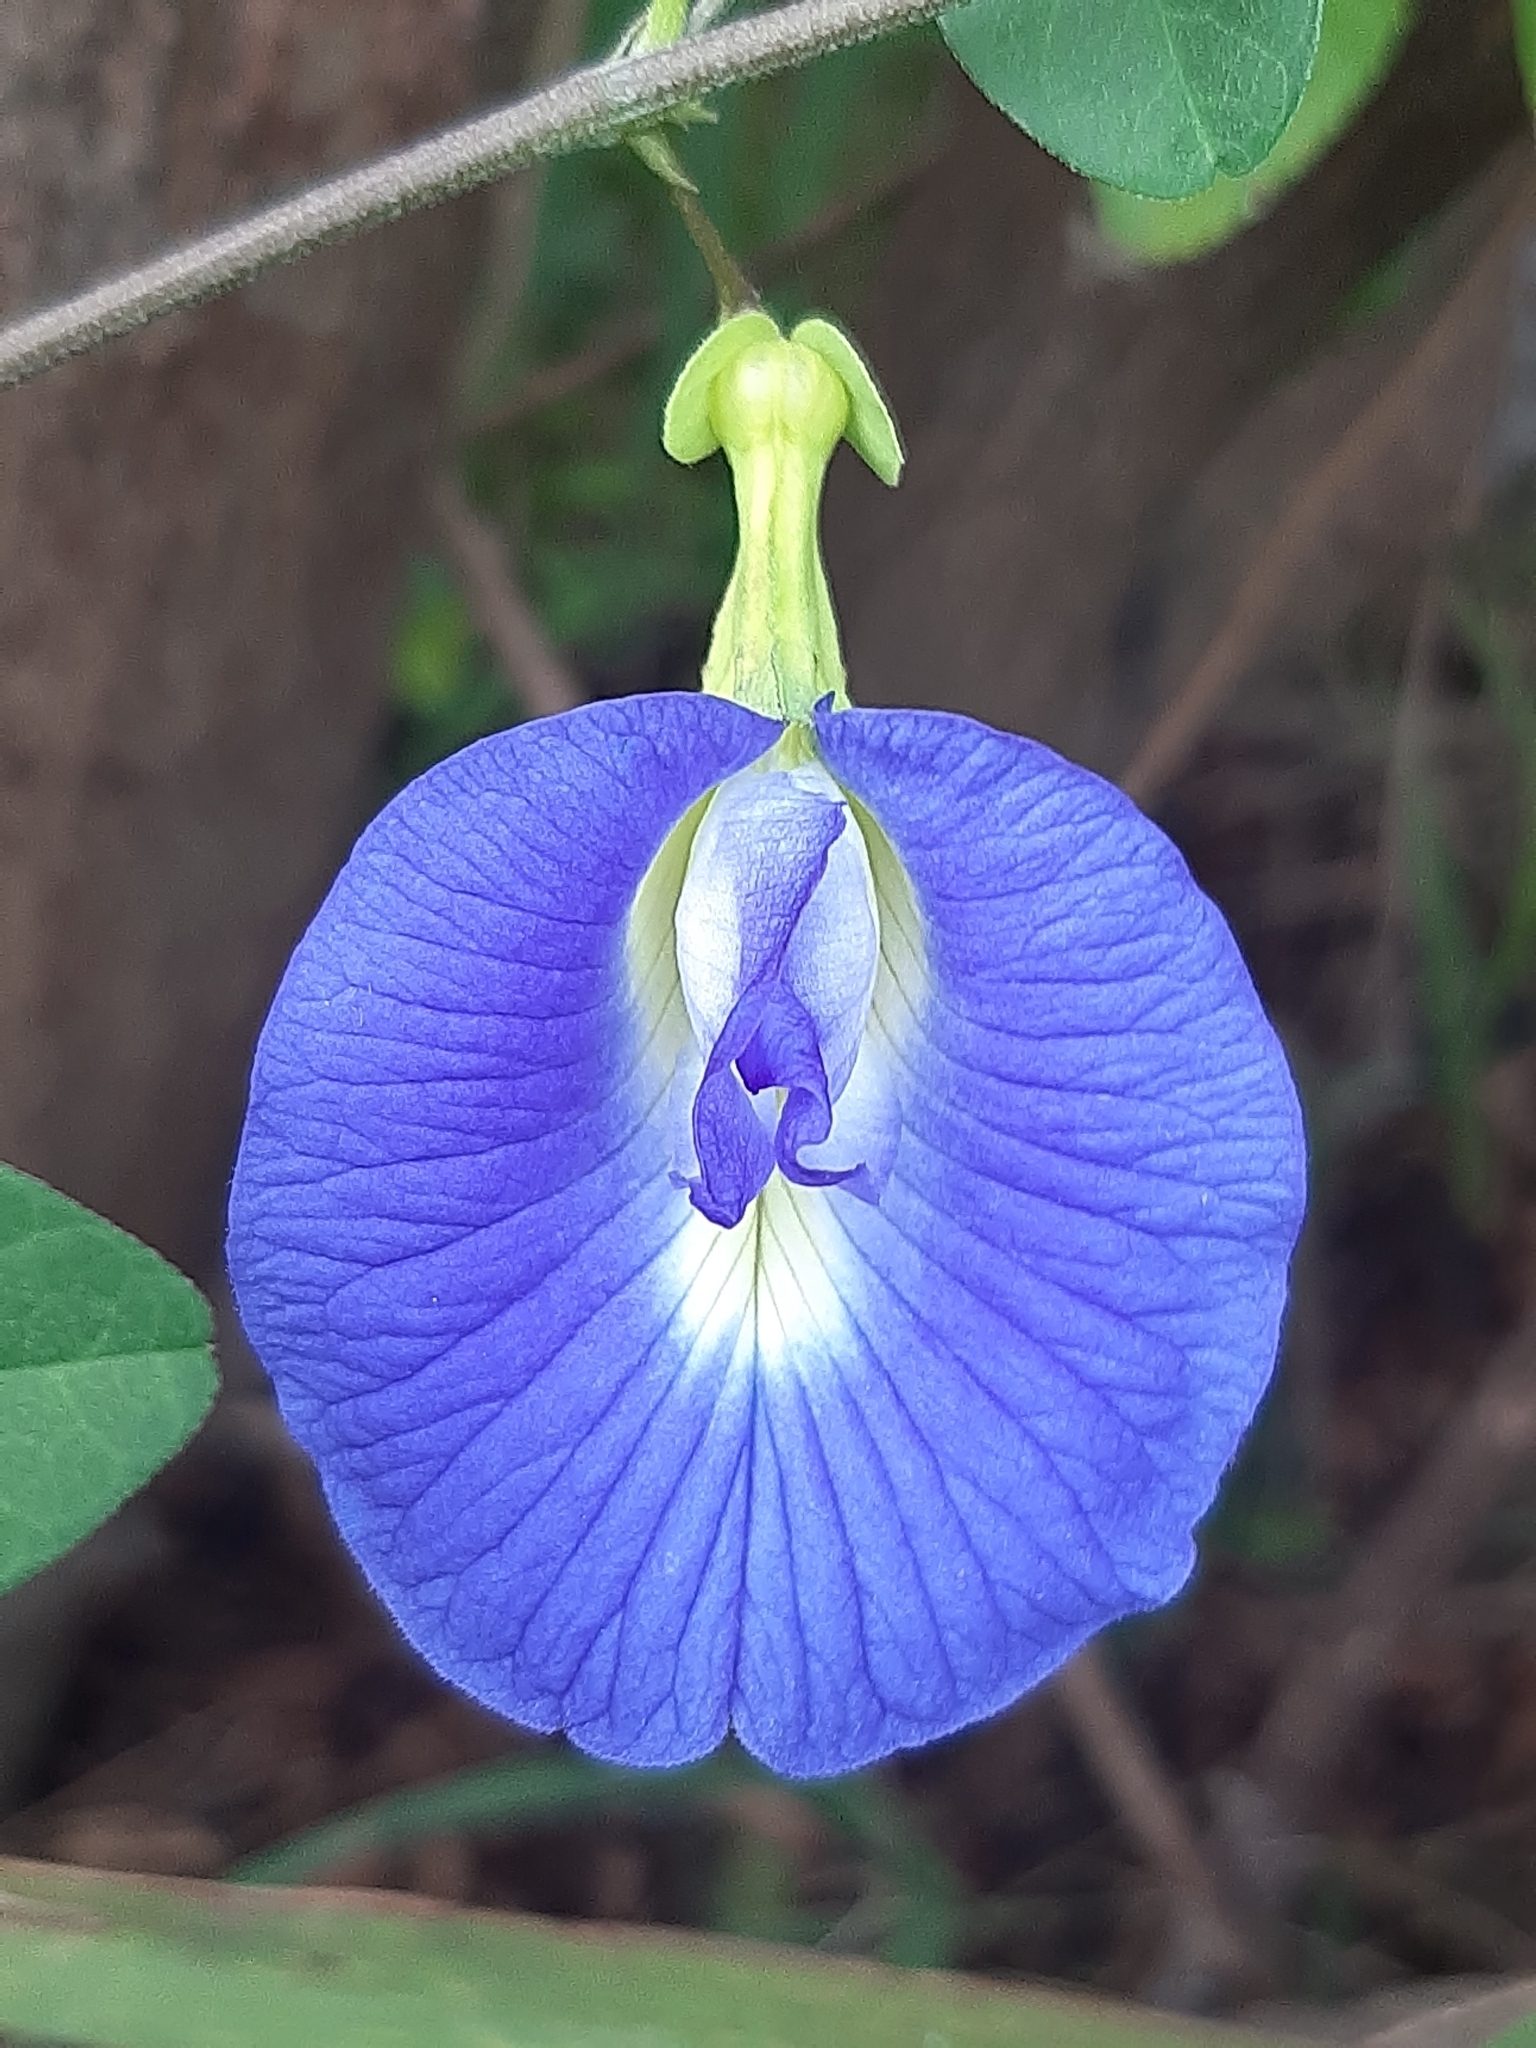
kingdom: Plantae
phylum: Tracheophyta
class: Magnoliopsida
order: Fabales
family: Fabaceae
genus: Clitoria
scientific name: Clitoria ternatea
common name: Asian pigeonwings
